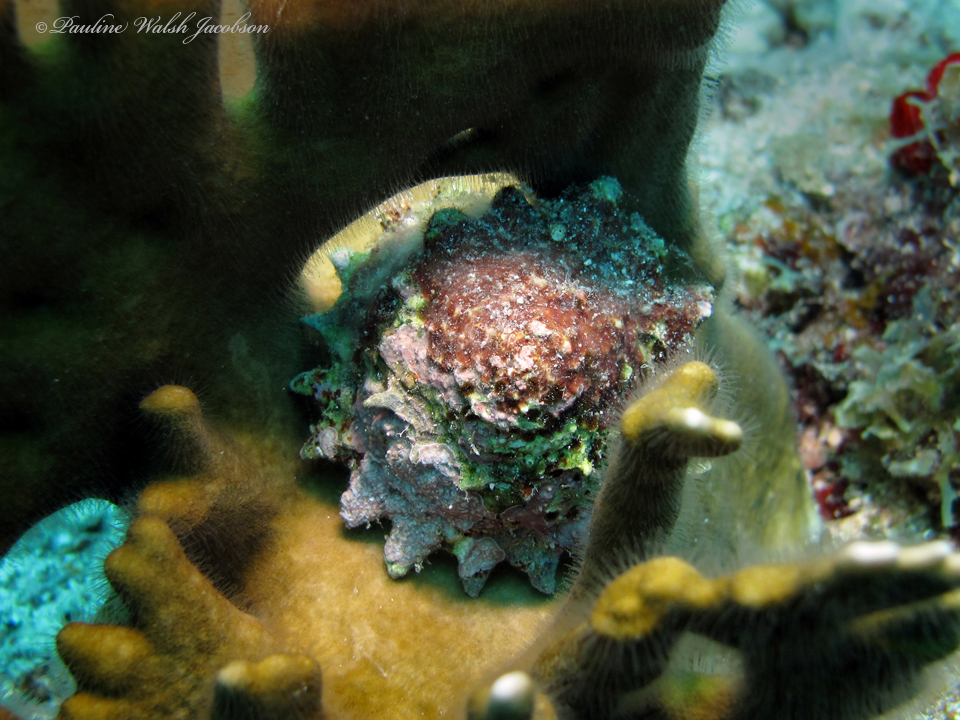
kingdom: Animalia
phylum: Mollusca
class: Gastropoda
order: Trochida
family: Turbinidae
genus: Lithopoma
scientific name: Lithopoma phoebium
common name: Long-spined starsnail
